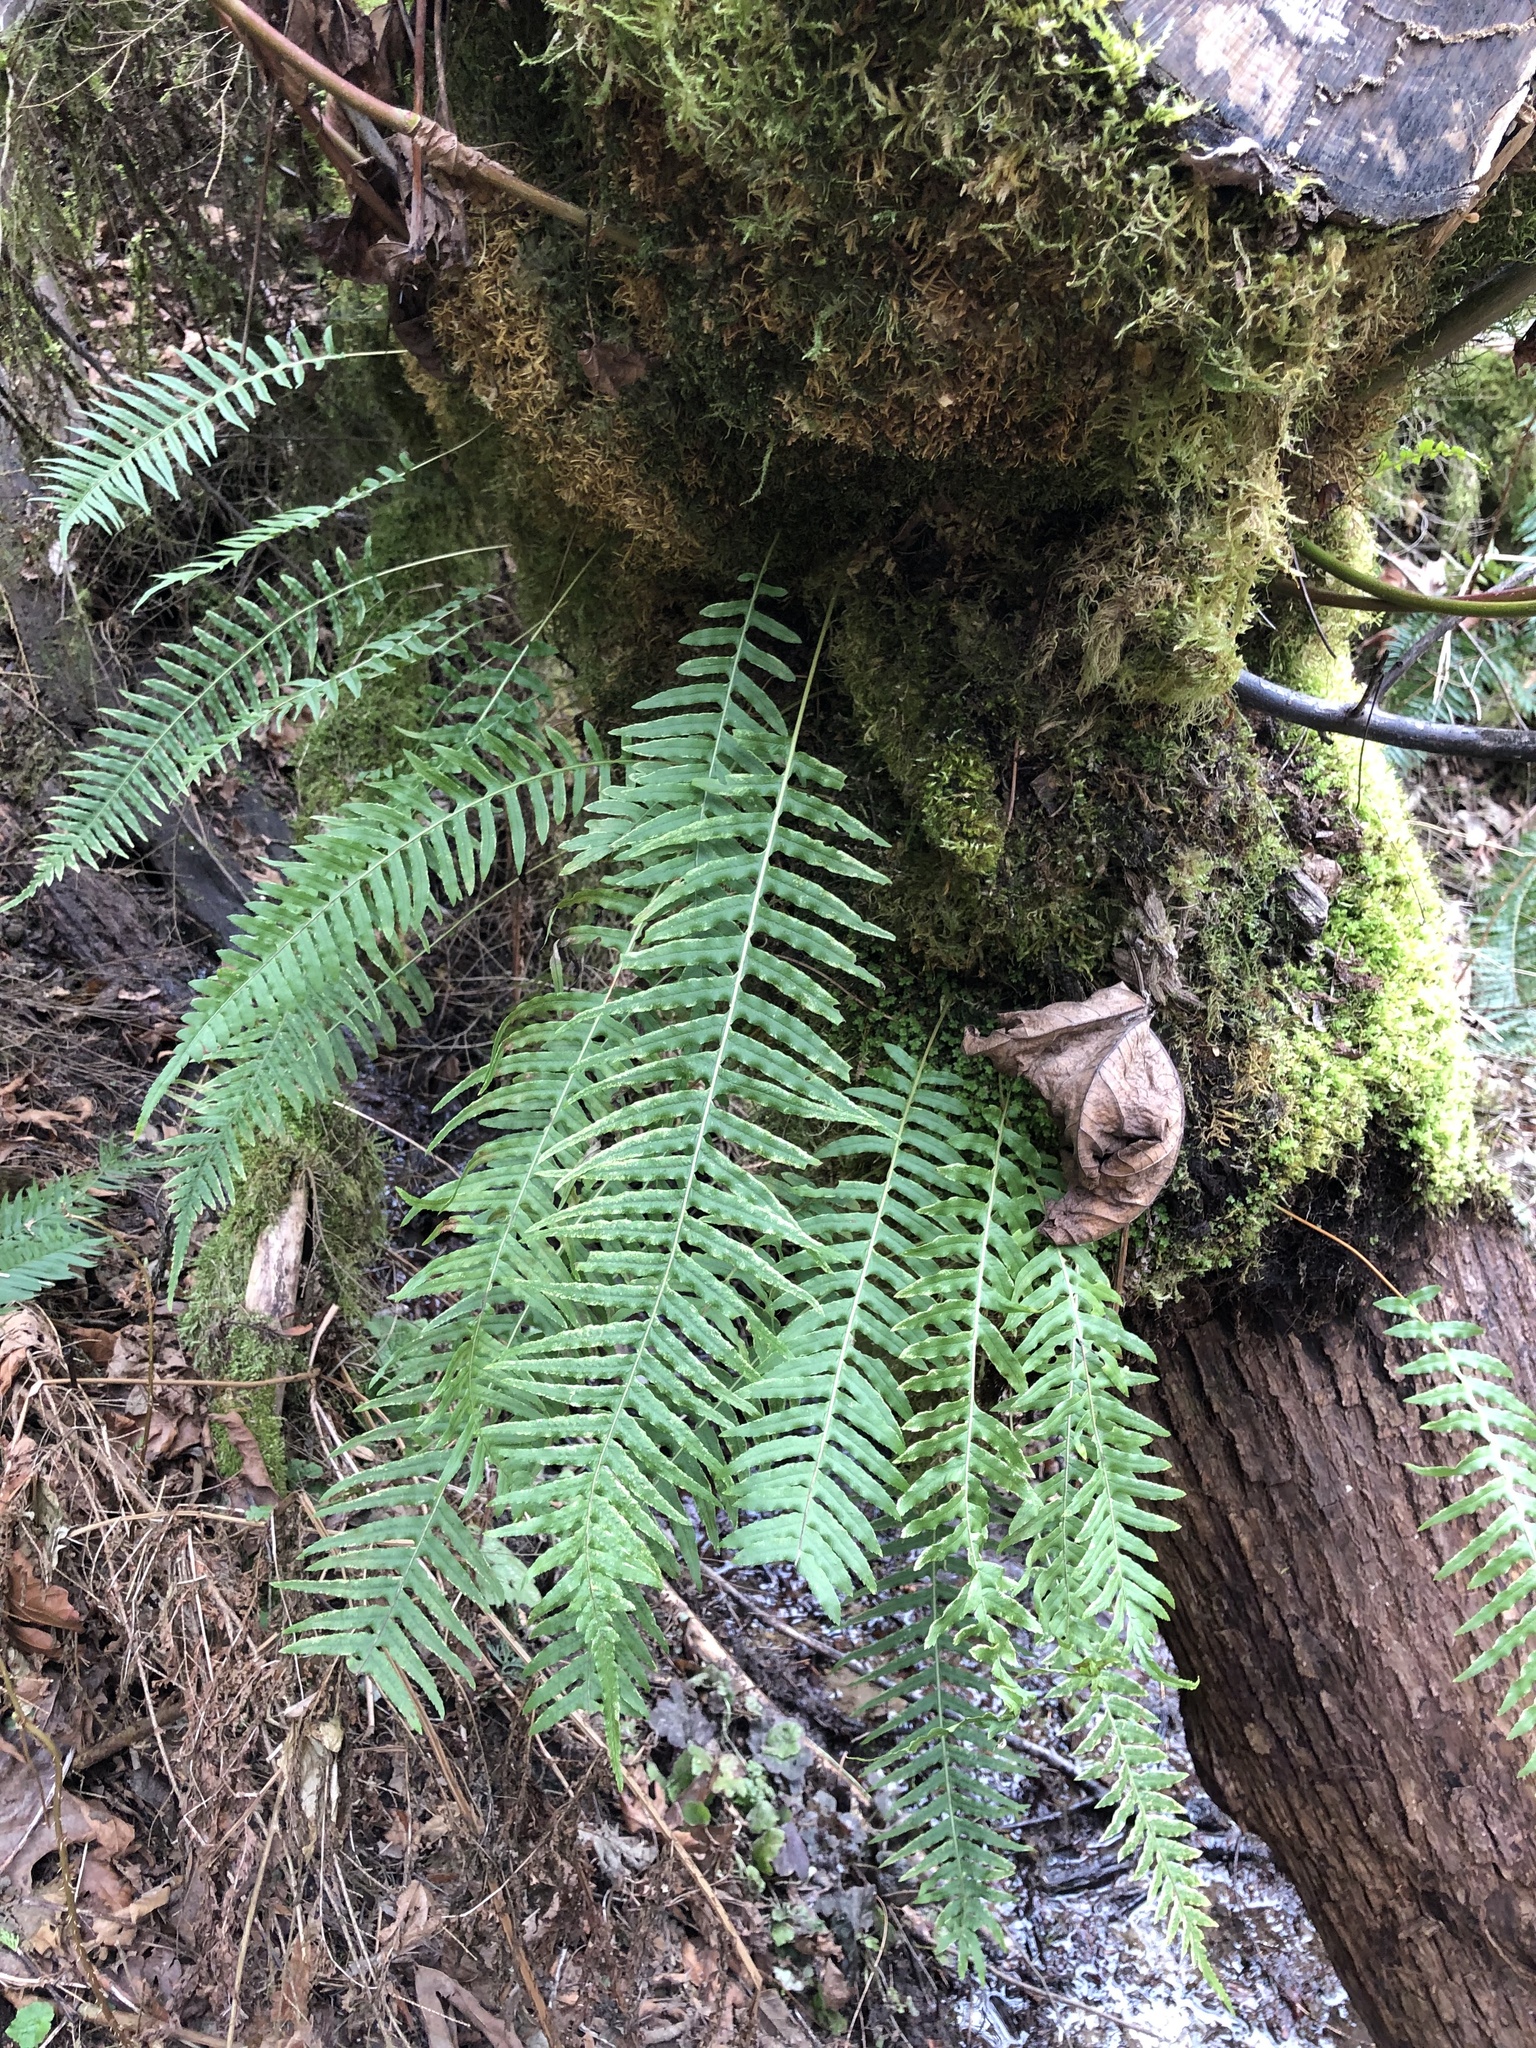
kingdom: Plantae
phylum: Tracheophyta
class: Polypodiopsida
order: Polypodiales
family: Polypodiaceae
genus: Polypodium
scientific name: Polypodium glycyrrhiza
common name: Licorice fern
